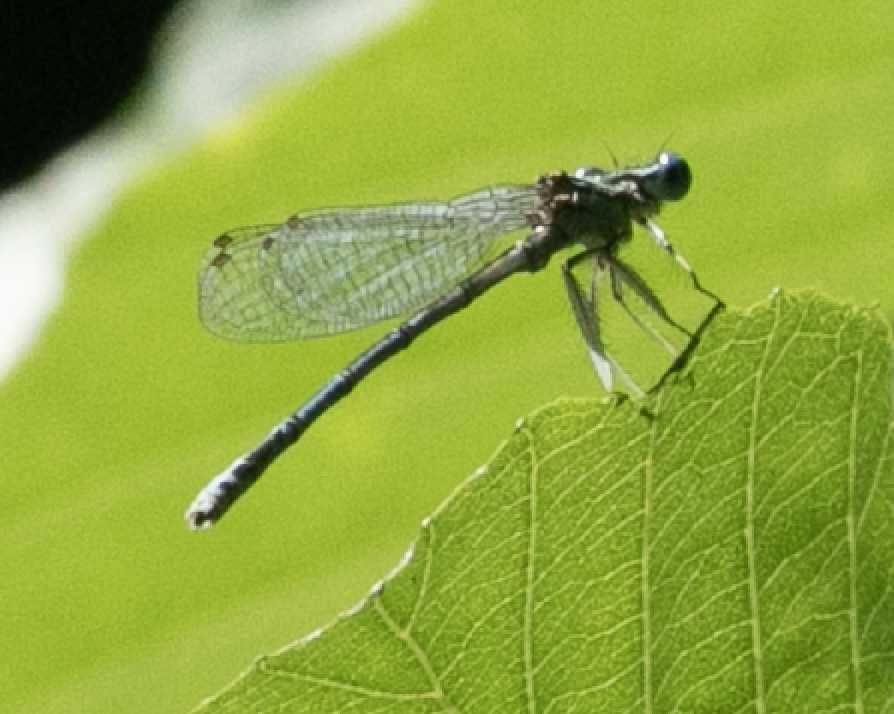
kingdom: Animalia
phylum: Arthropoda
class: Insecta
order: Odonata
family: Platycnemididae
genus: Platycnemis
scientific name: Platycnemis pennipes
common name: White-legged damselfly
